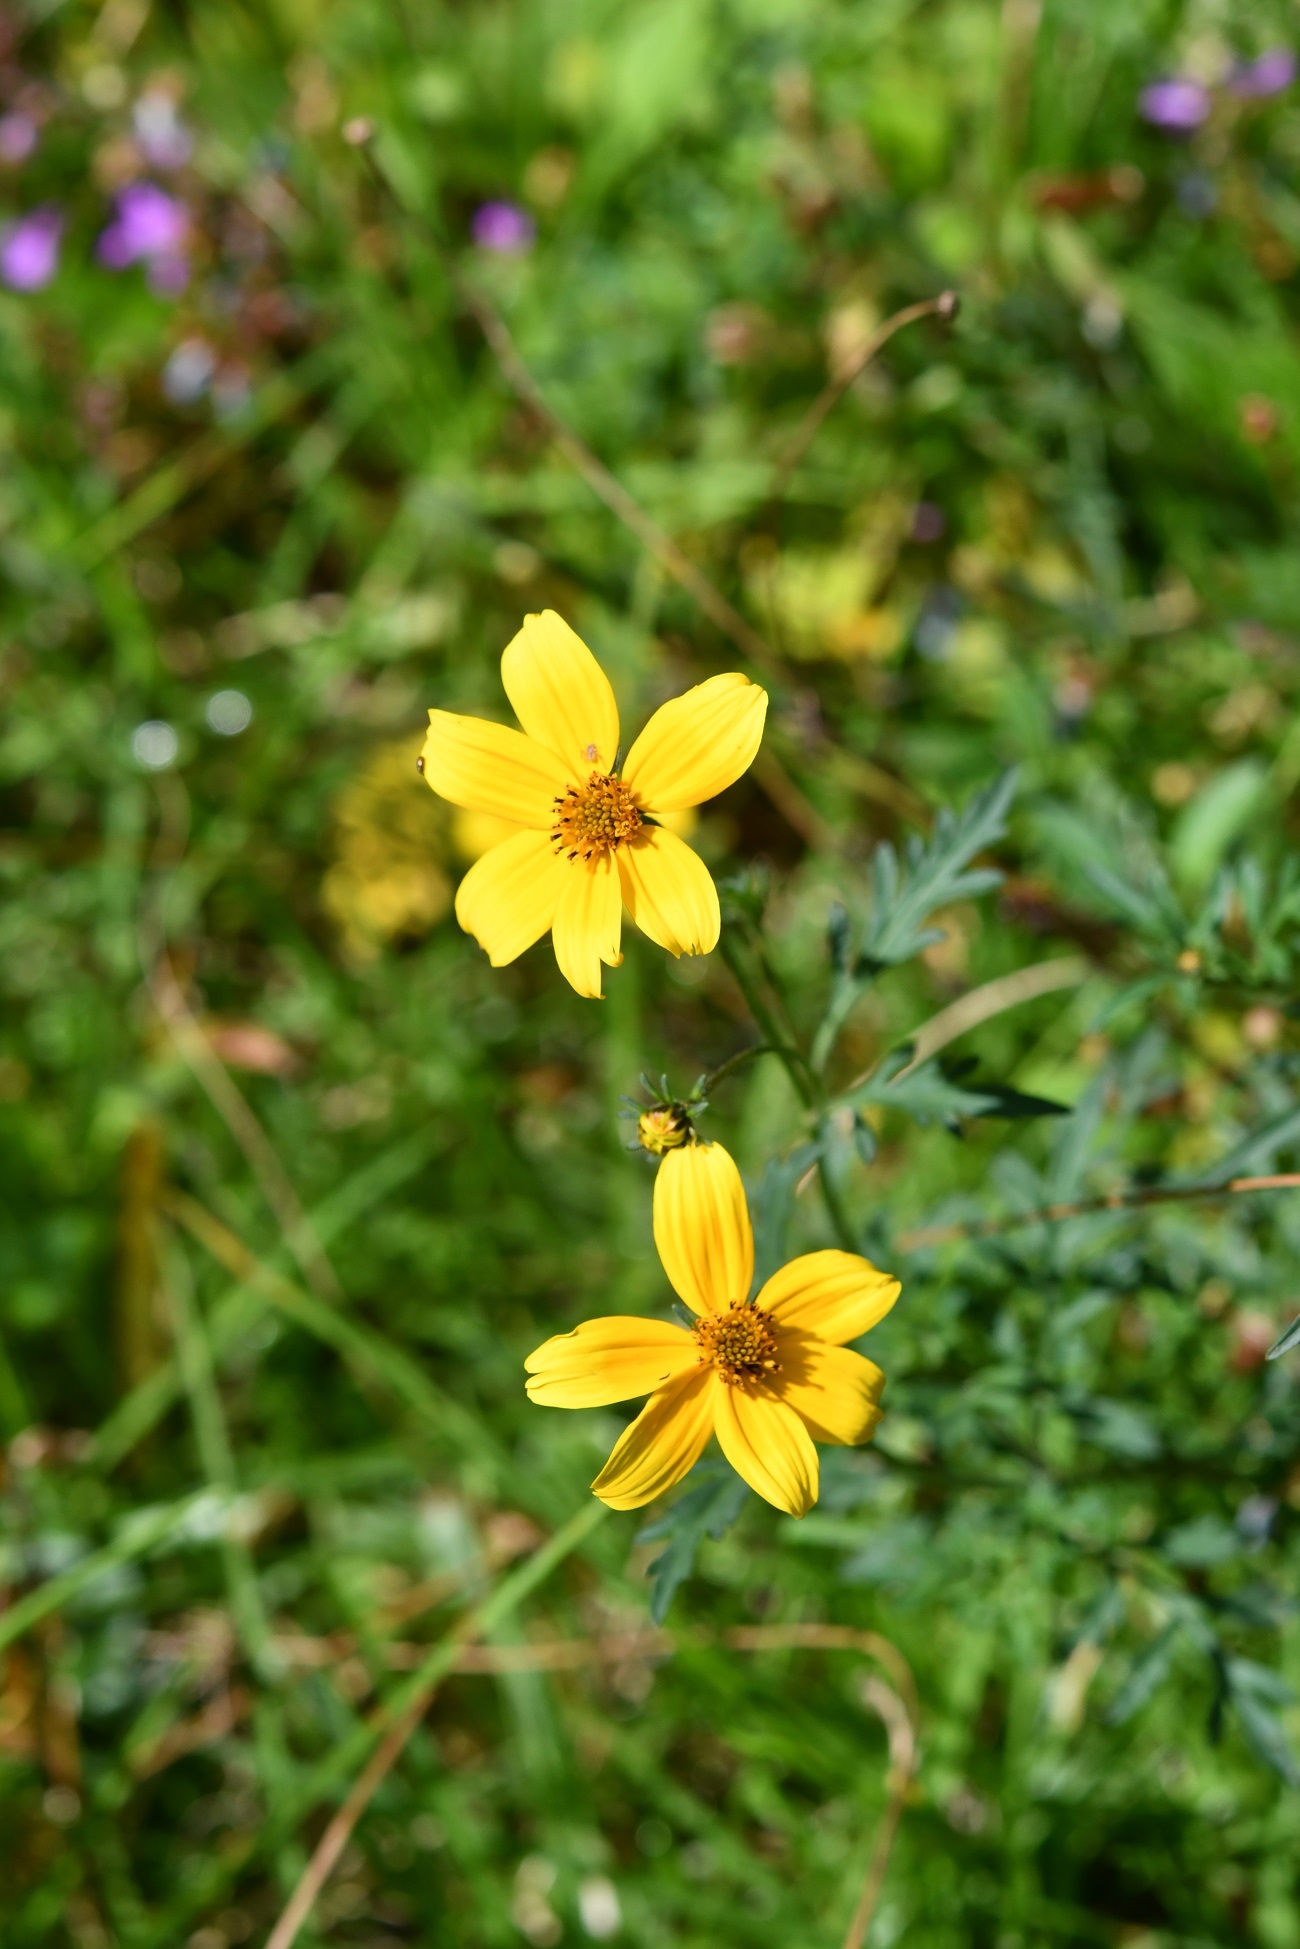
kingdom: Plantae
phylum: Tracheophyta
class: Magnoliopsida
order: Asterales
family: Asteraceae
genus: Bidens
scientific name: Bidens triplinervia
